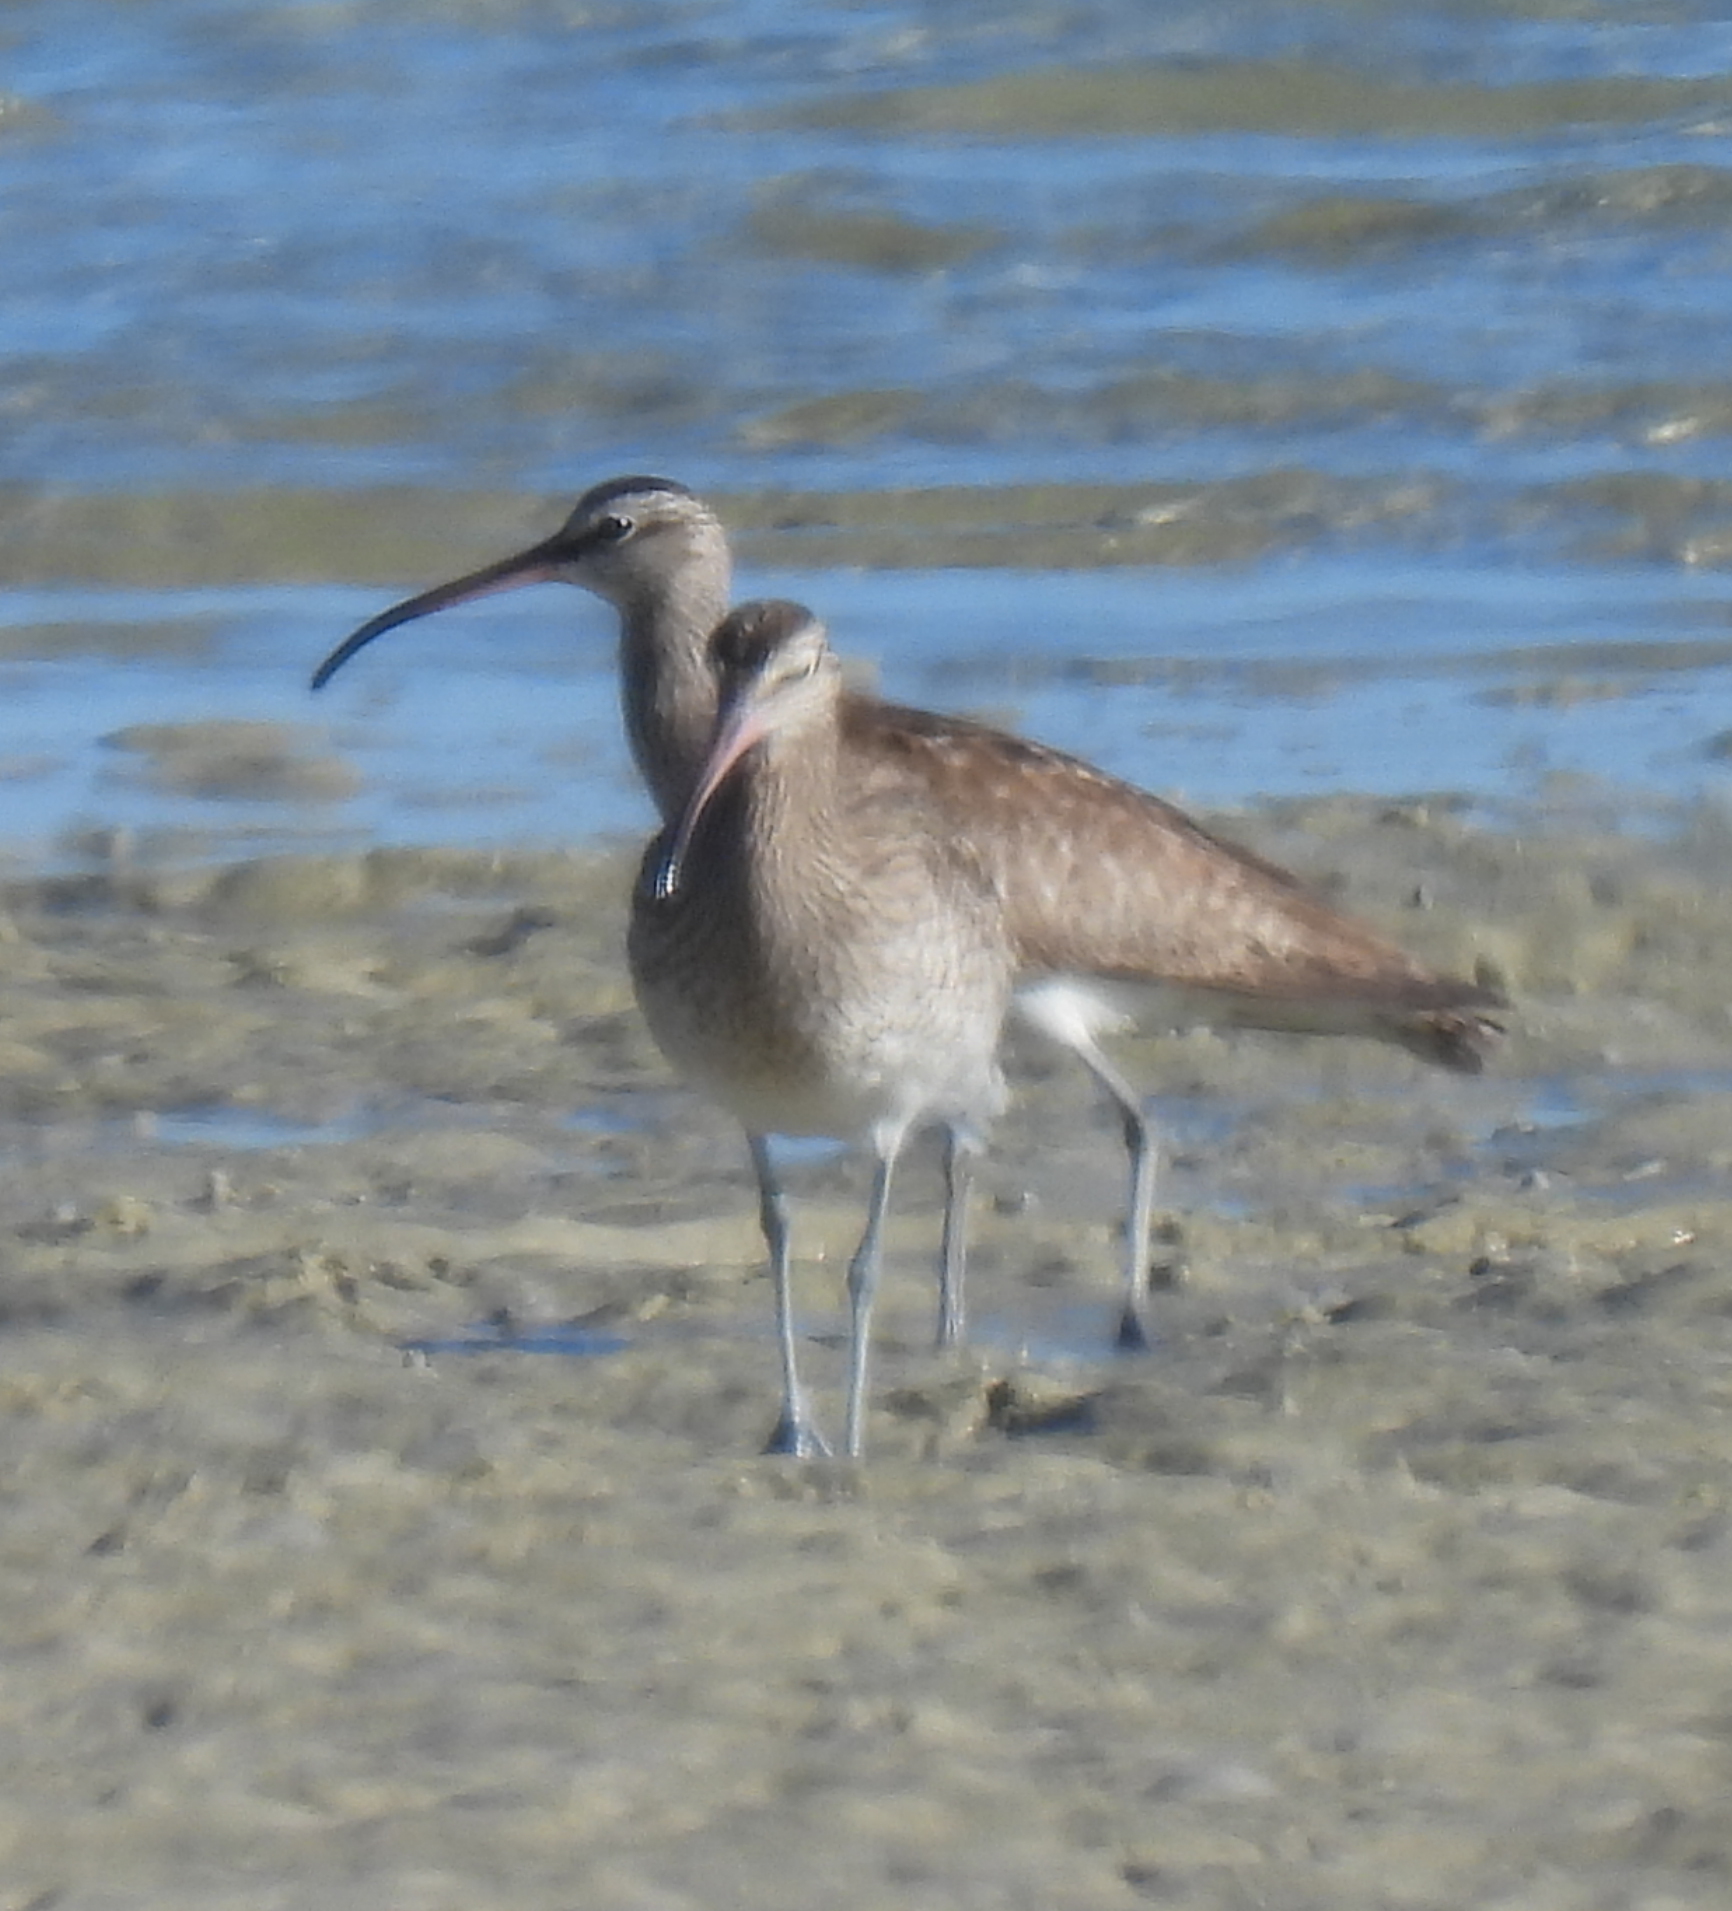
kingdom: Animalia
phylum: Chordata
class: Aves
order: Charadriiformes
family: Scolopacidae
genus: Numenius
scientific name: Numenius phaeopus
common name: Whimbrel
